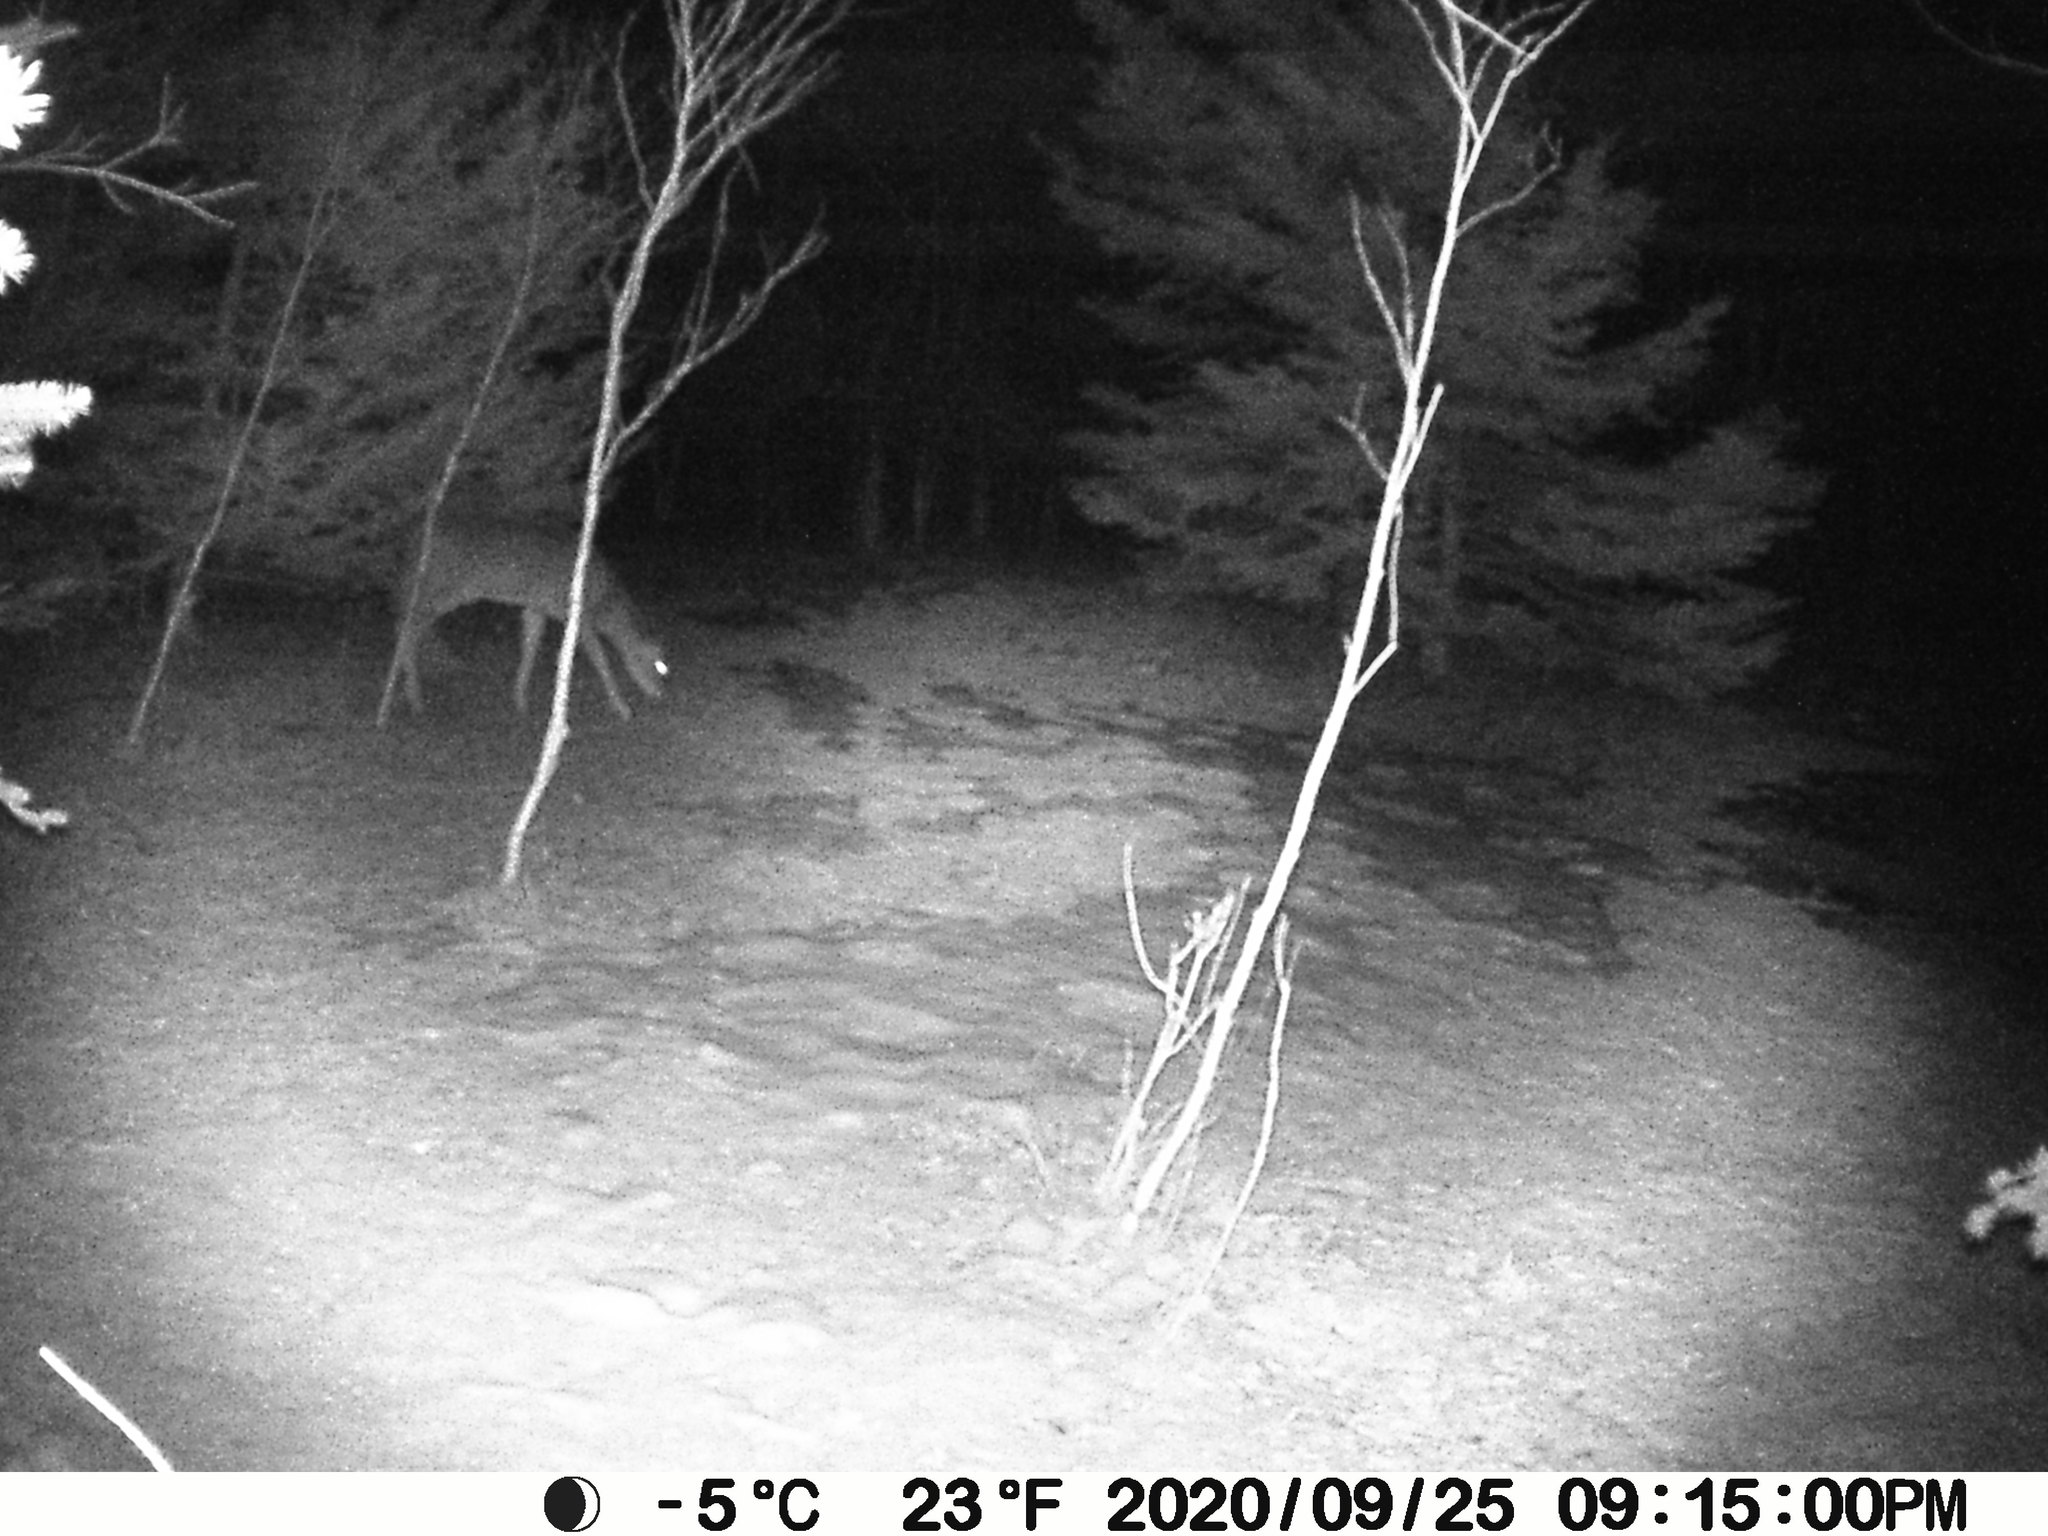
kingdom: Animalia
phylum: Chordata
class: Mammalia
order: Artiodactyla
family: Cervidae
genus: Odocoileus
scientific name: Odocoileus virginianus
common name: White-tailed deer
